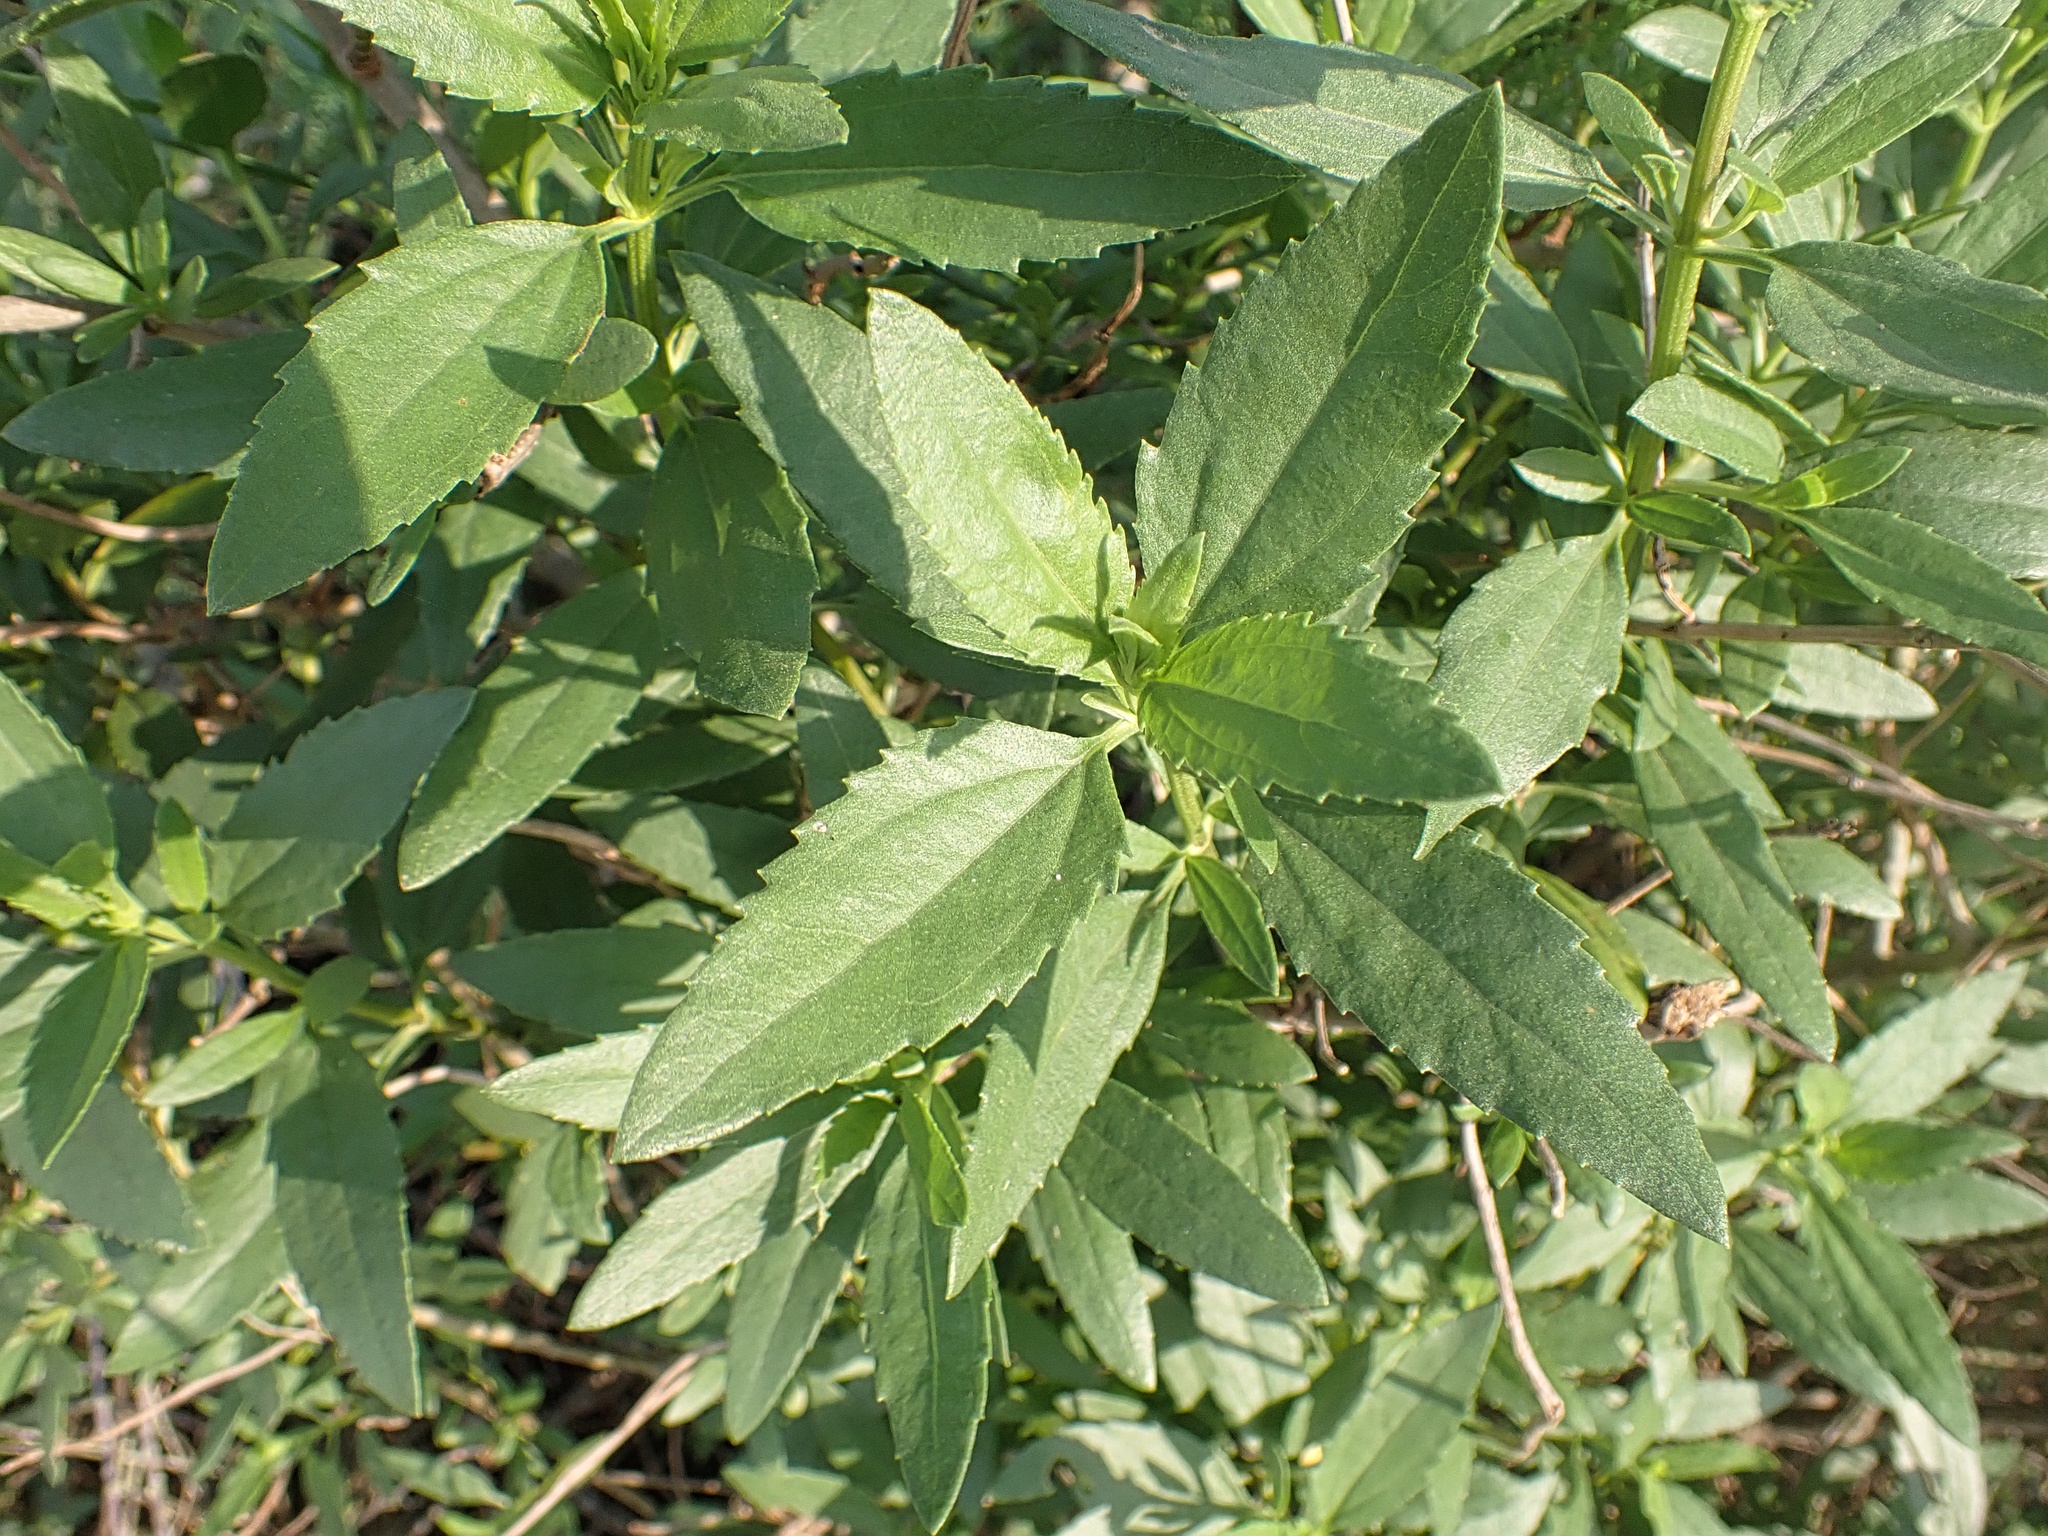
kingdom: Plantae
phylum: Tracheophyta
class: Magnoliopsida
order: Asterales
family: Asteraceae
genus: Iva
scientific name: Iva frutescens
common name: Big-leaved marsh-elder
